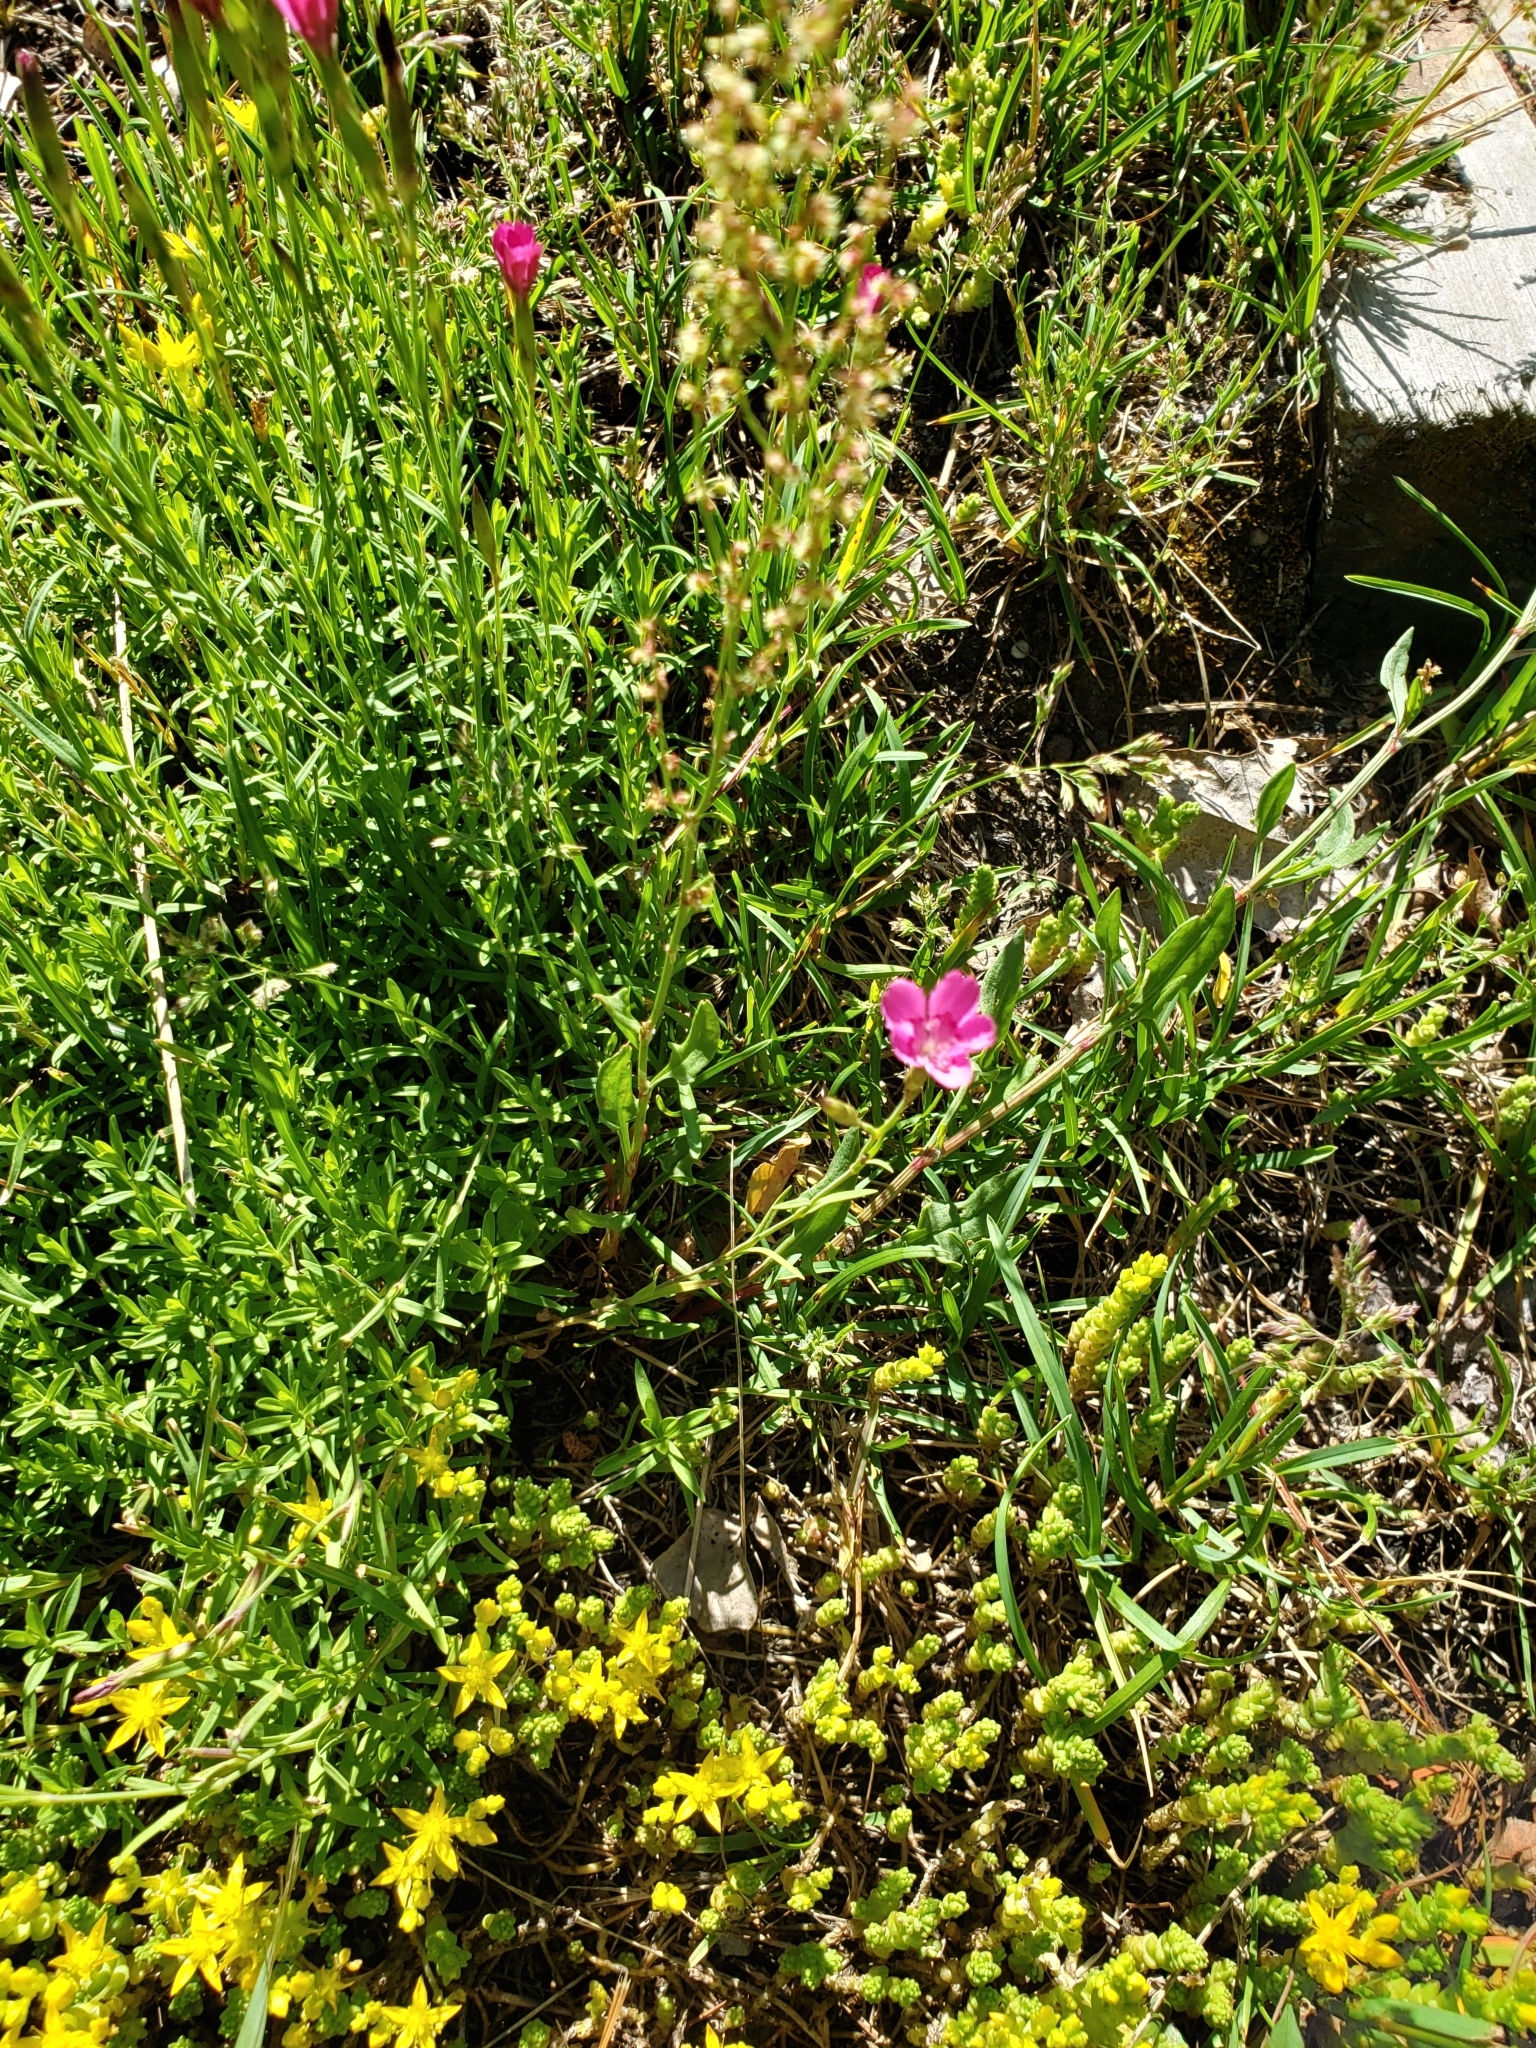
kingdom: Plantae
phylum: Tracheophyta
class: Magnoliopsida
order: Caryophyllales
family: Caryophyllaceae
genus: Dianthus
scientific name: Dianthus deltoides
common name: Maiden pink
